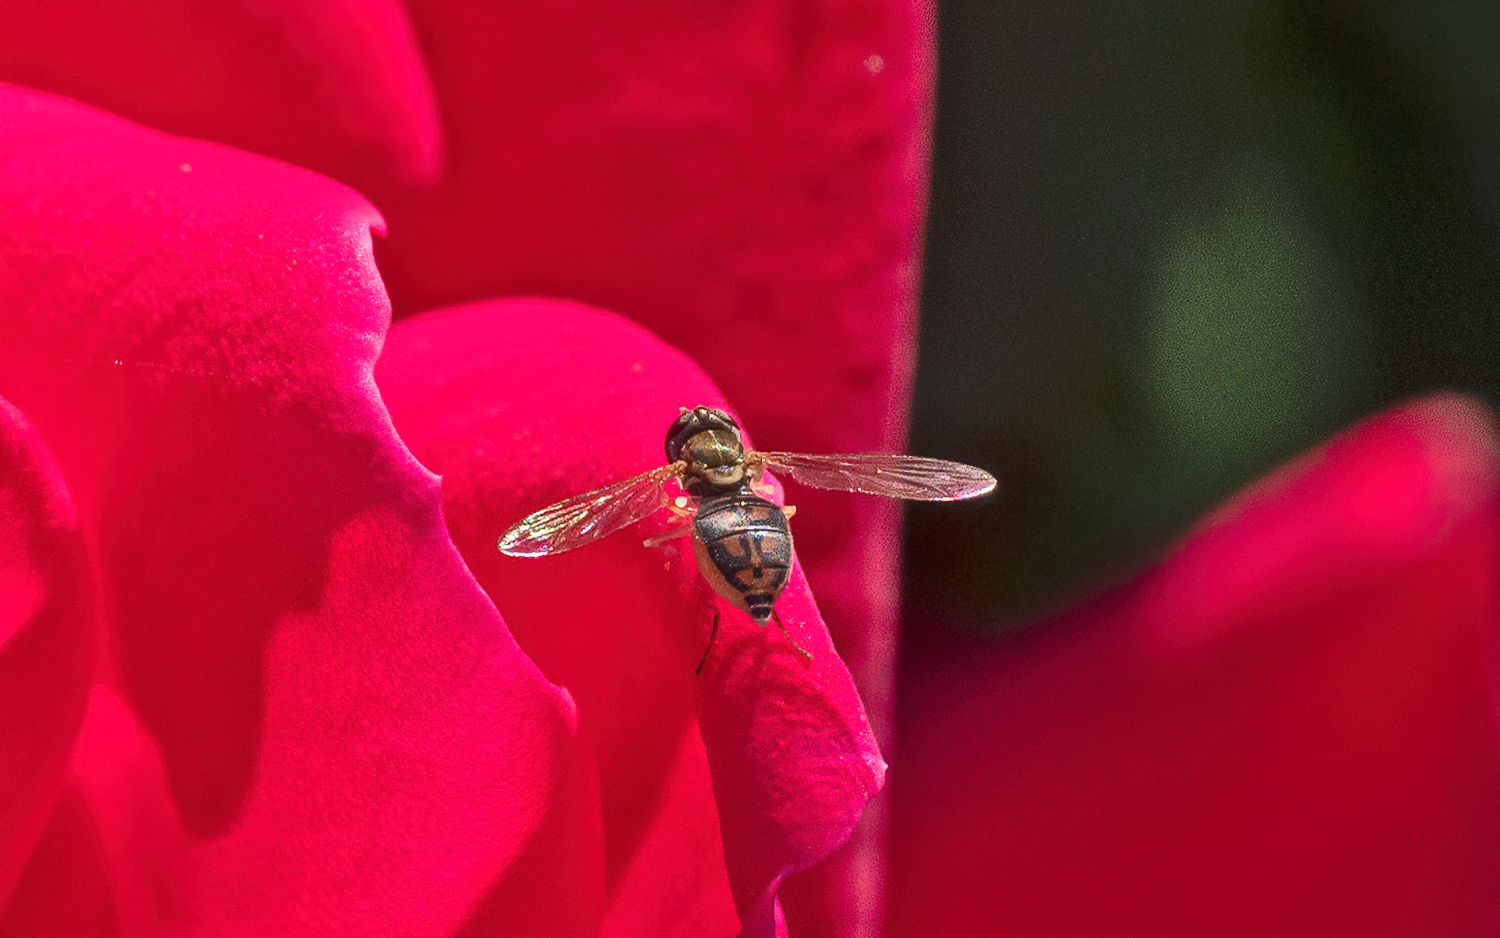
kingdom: Animalia
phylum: Arthropoda
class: Insecta
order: Diptera
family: Syrphidae
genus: Toxomerus
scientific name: Toxomerus marginatus
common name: Syrphid fly
